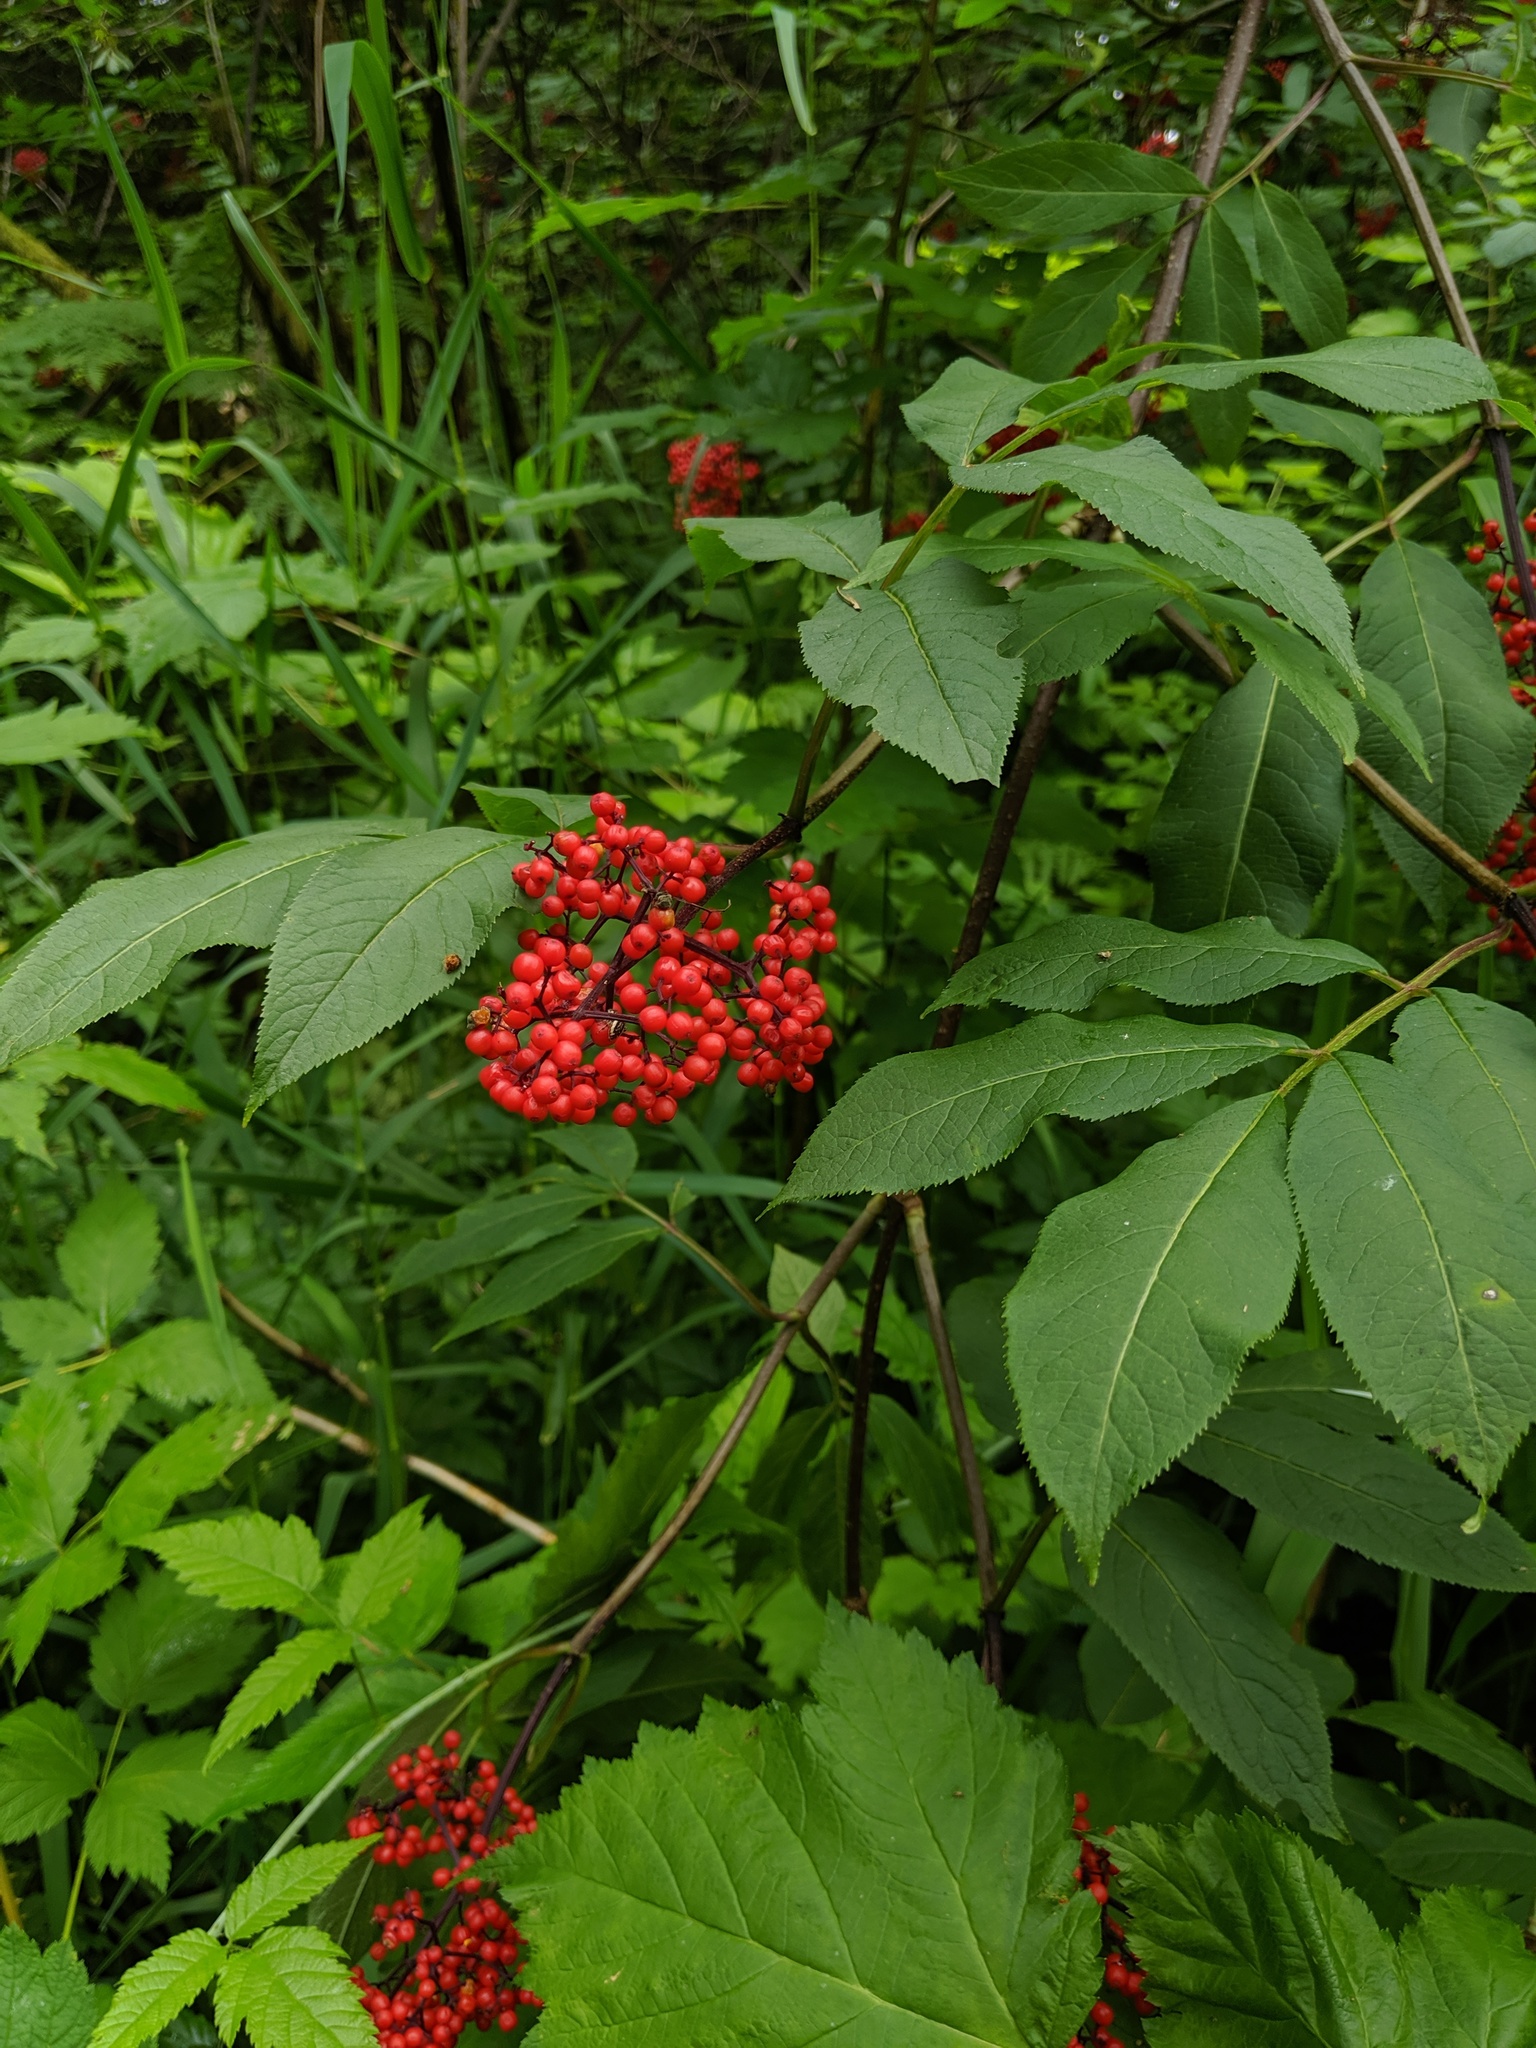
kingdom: Plantae
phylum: Tracheophyta
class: Magnoliopsida
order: Dipsacales
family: Viburnaceae
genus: Sambucus
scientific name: Sambucus racemosa
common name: Red-berried elder
